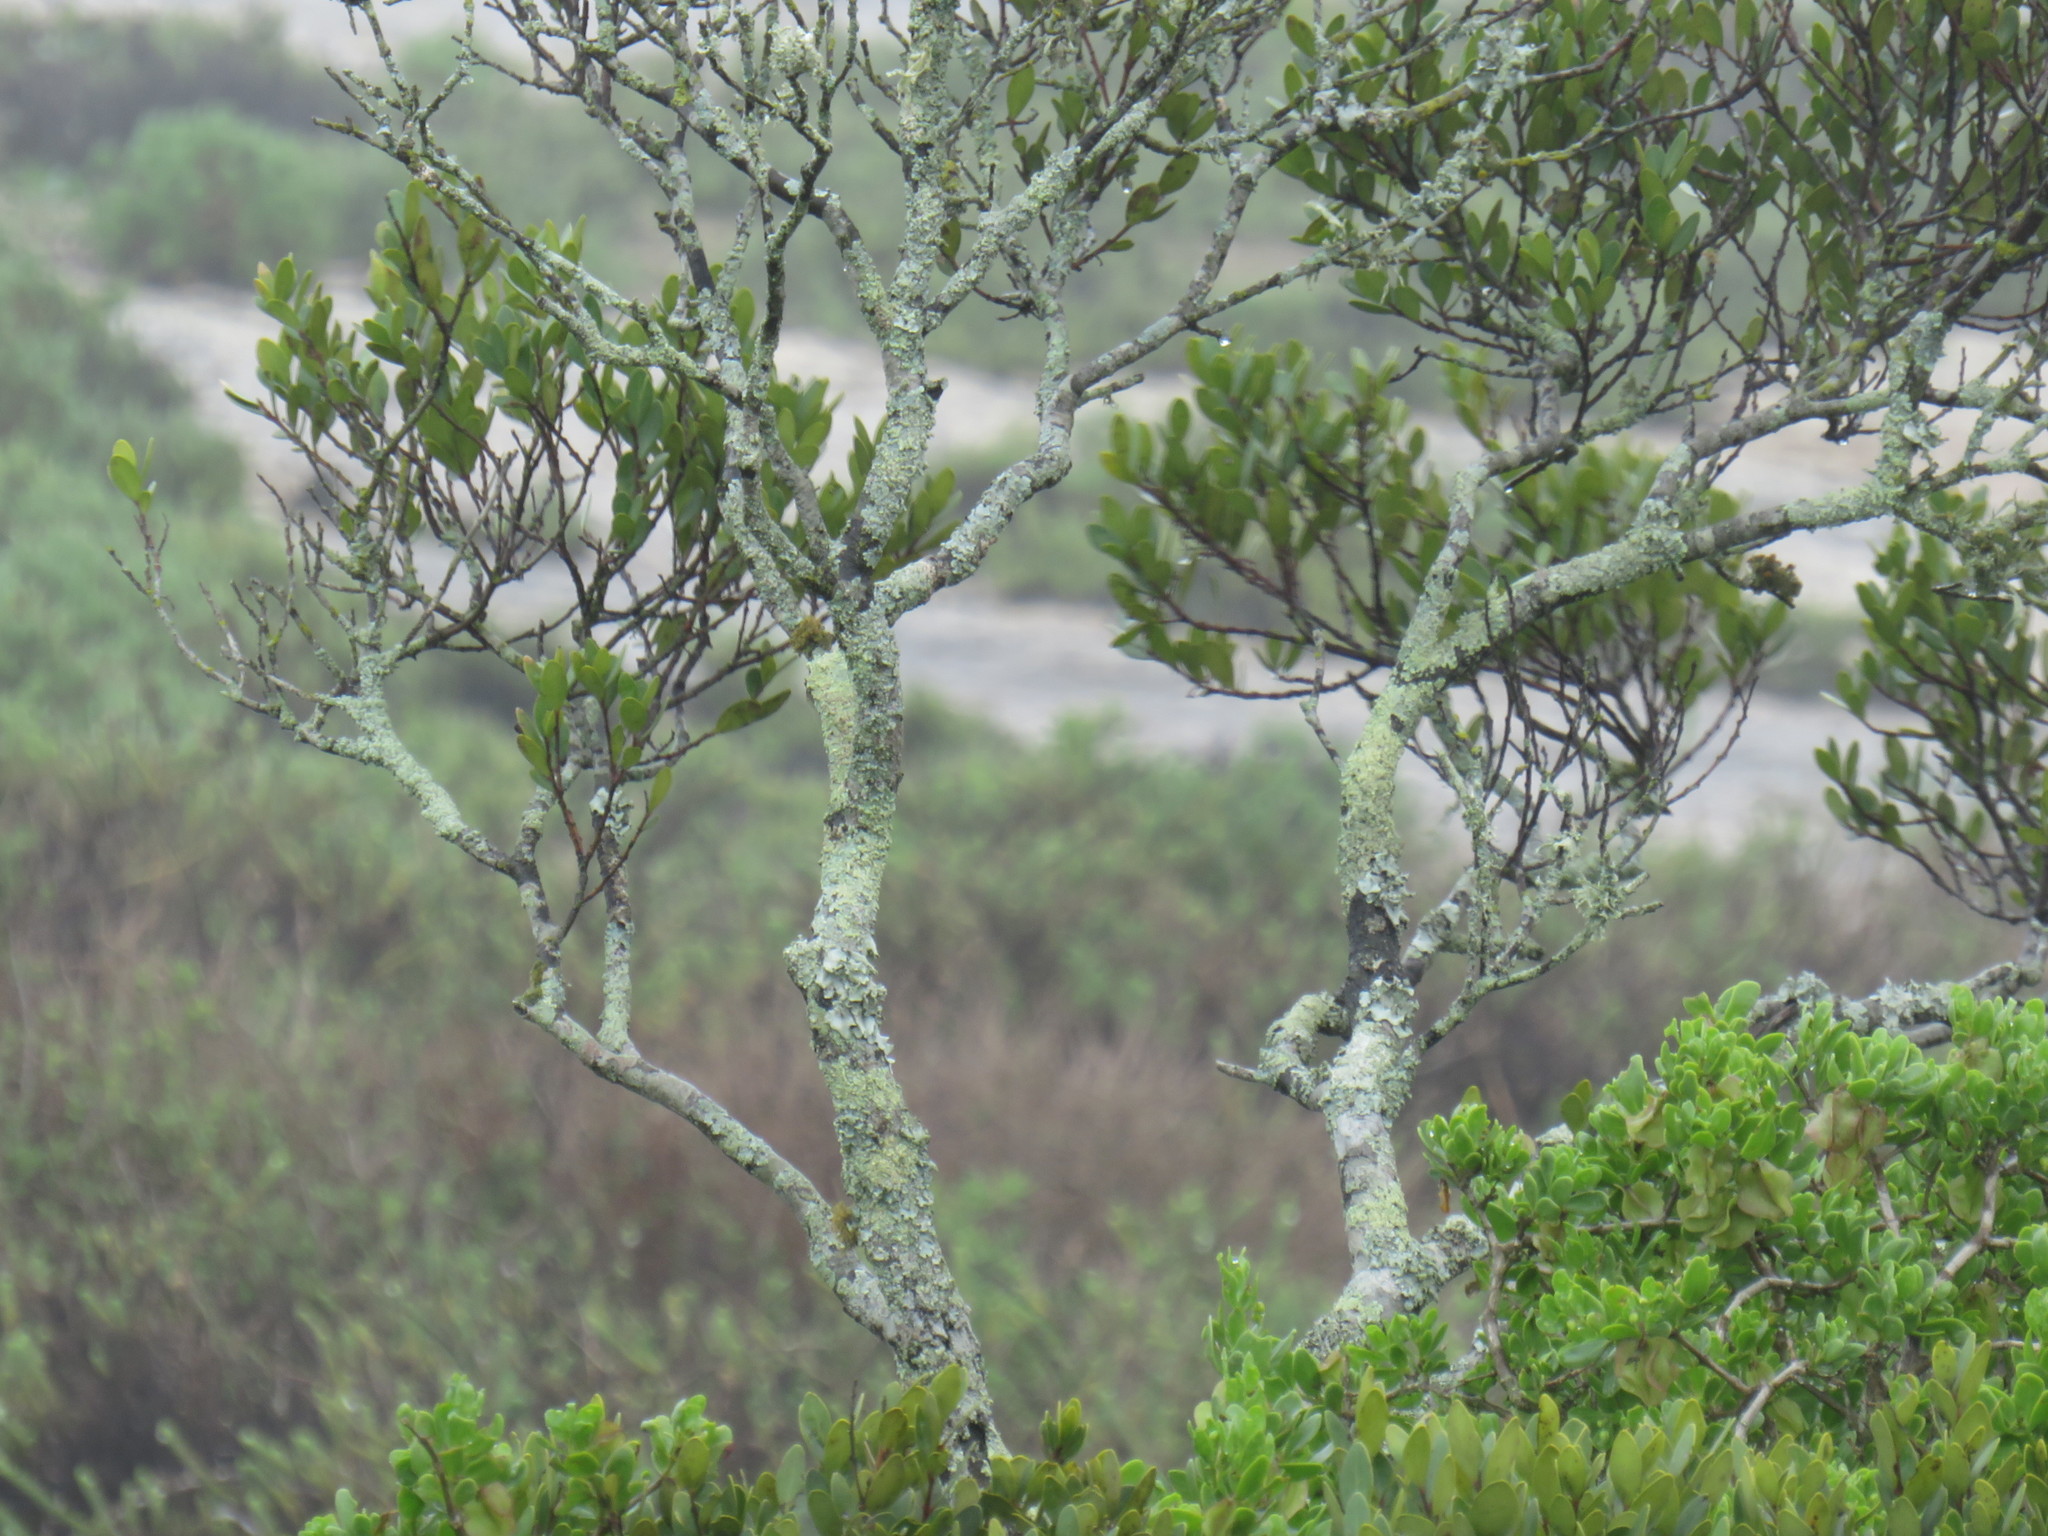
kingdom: Plantae
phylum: Tracheophyta
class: Magnoliopsida
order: Ericales
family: Ebenaceae
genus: Euclea
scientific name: Euclea racemosa
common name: Dune guarri
